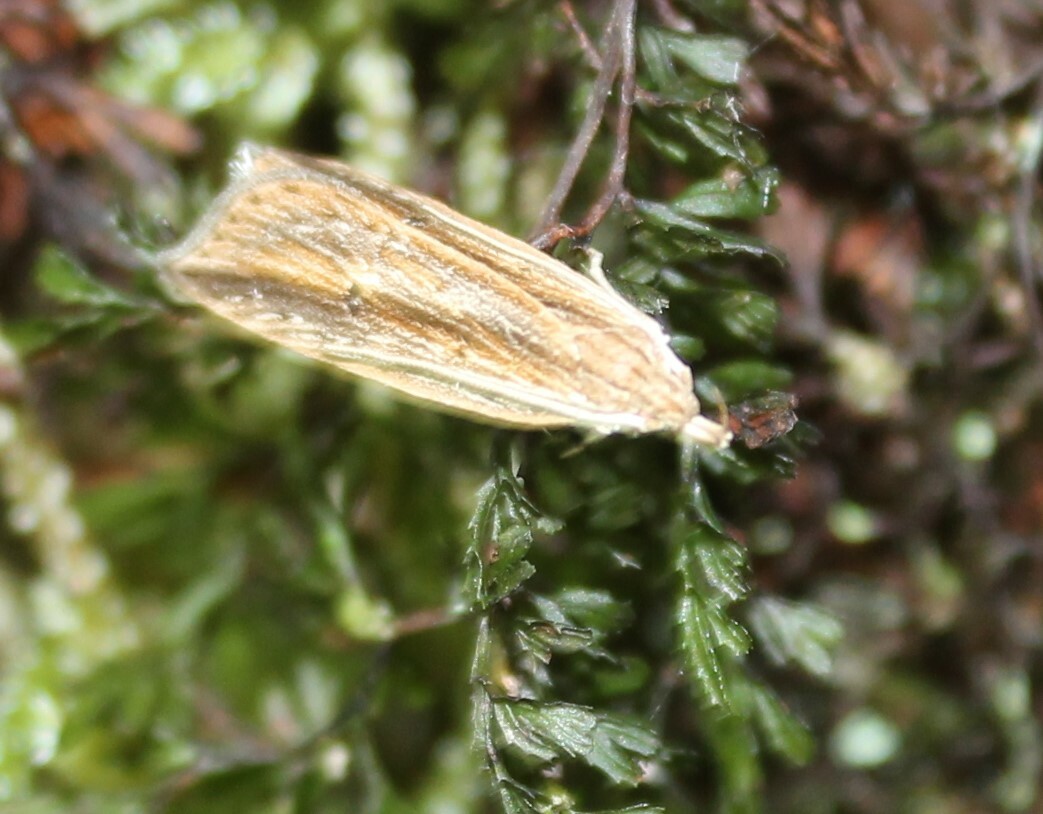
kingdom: Animalia
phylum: Arthropoda
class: Insecta
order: Lepidoptera
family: Xyloryctidae
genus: Donacostola
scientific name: Donacostola notabilis
